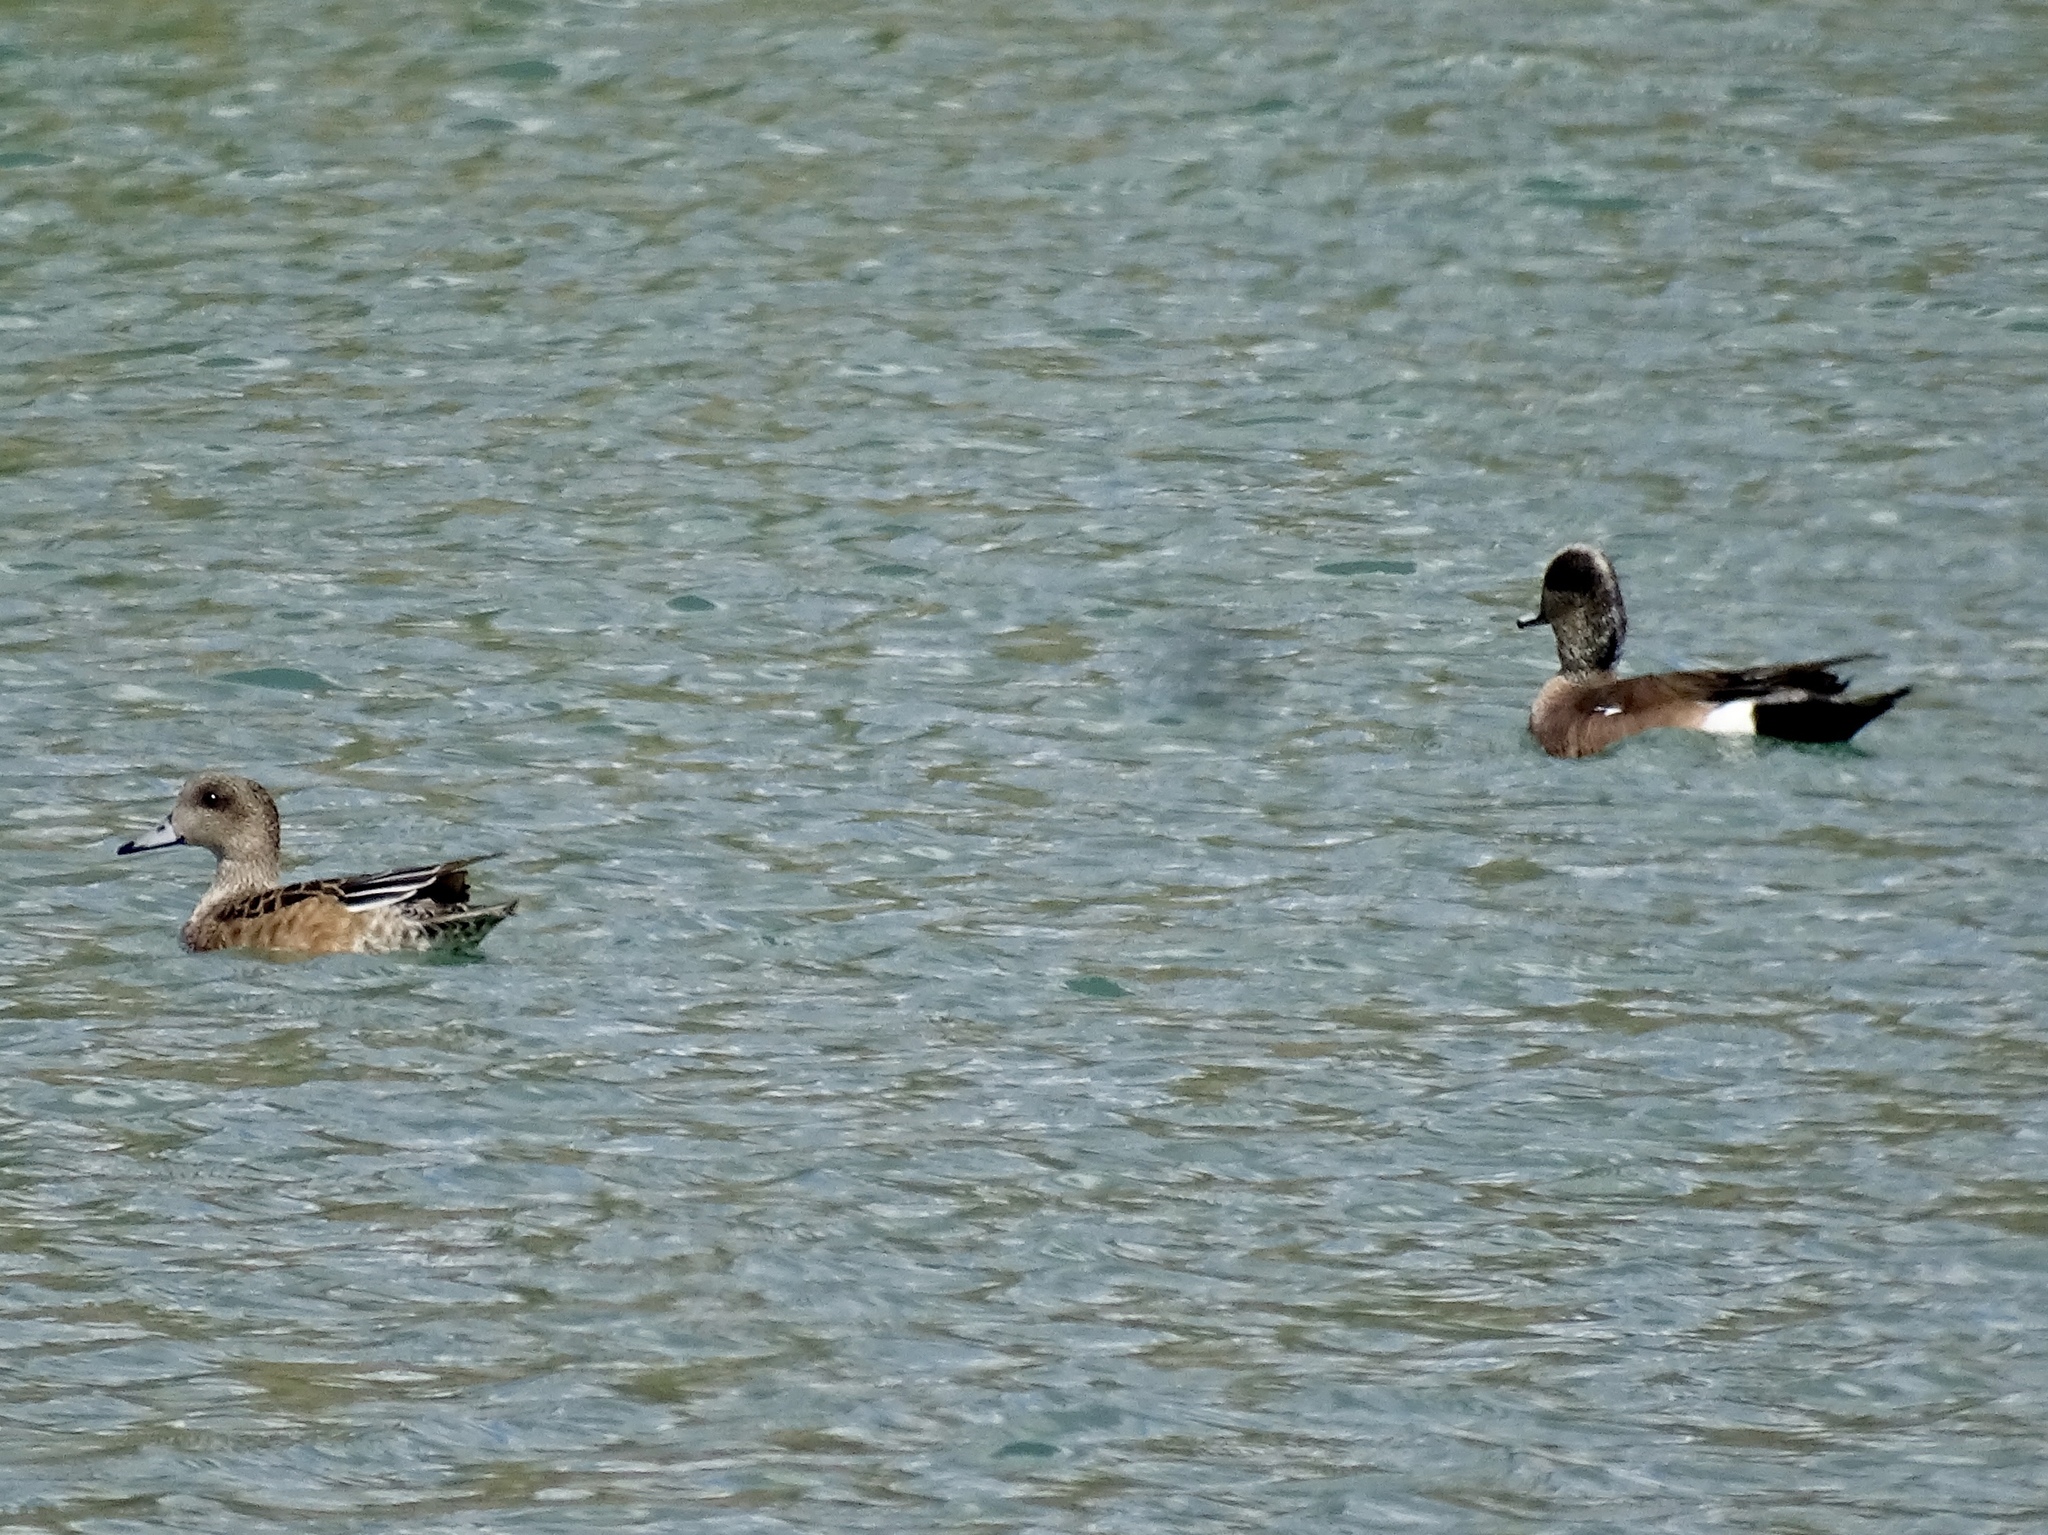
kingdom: Animalia
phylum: Chordata
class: Aves
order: Anseriformes
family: Anatidae
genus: Mareca
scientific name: Mareca americana
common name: American wigeon
